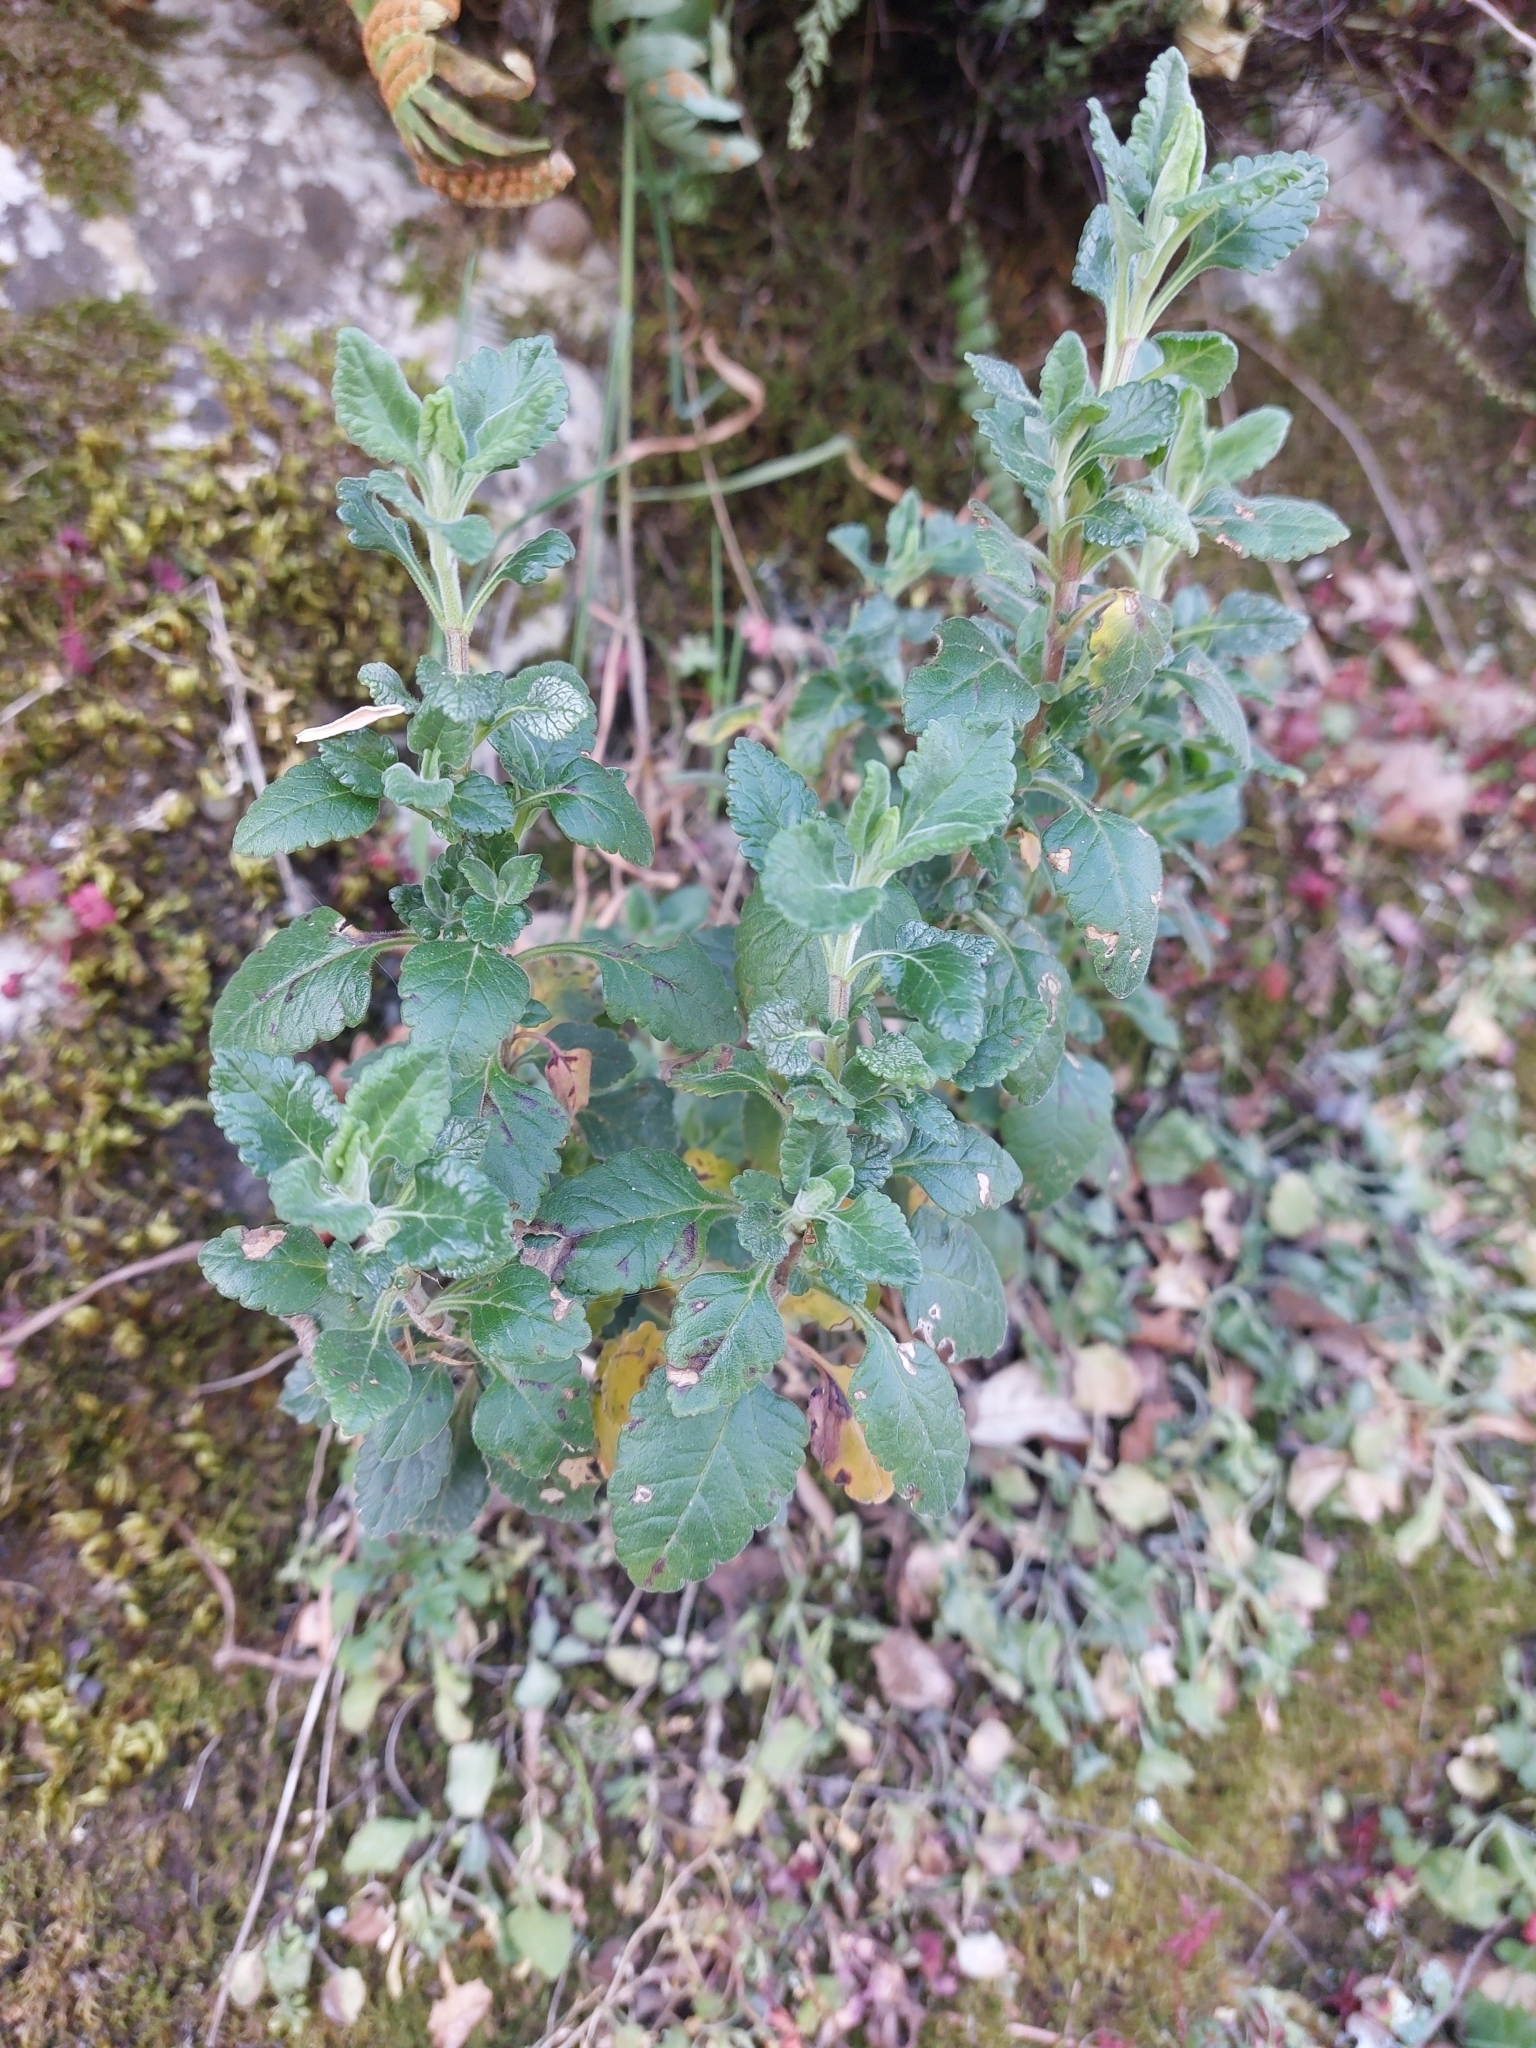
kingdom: Plantae
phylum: Tracheophyta
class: Magnoliopsida
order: Lamiales
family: Lamiaceae
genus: Teucrium
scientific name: Teucrium flavum
